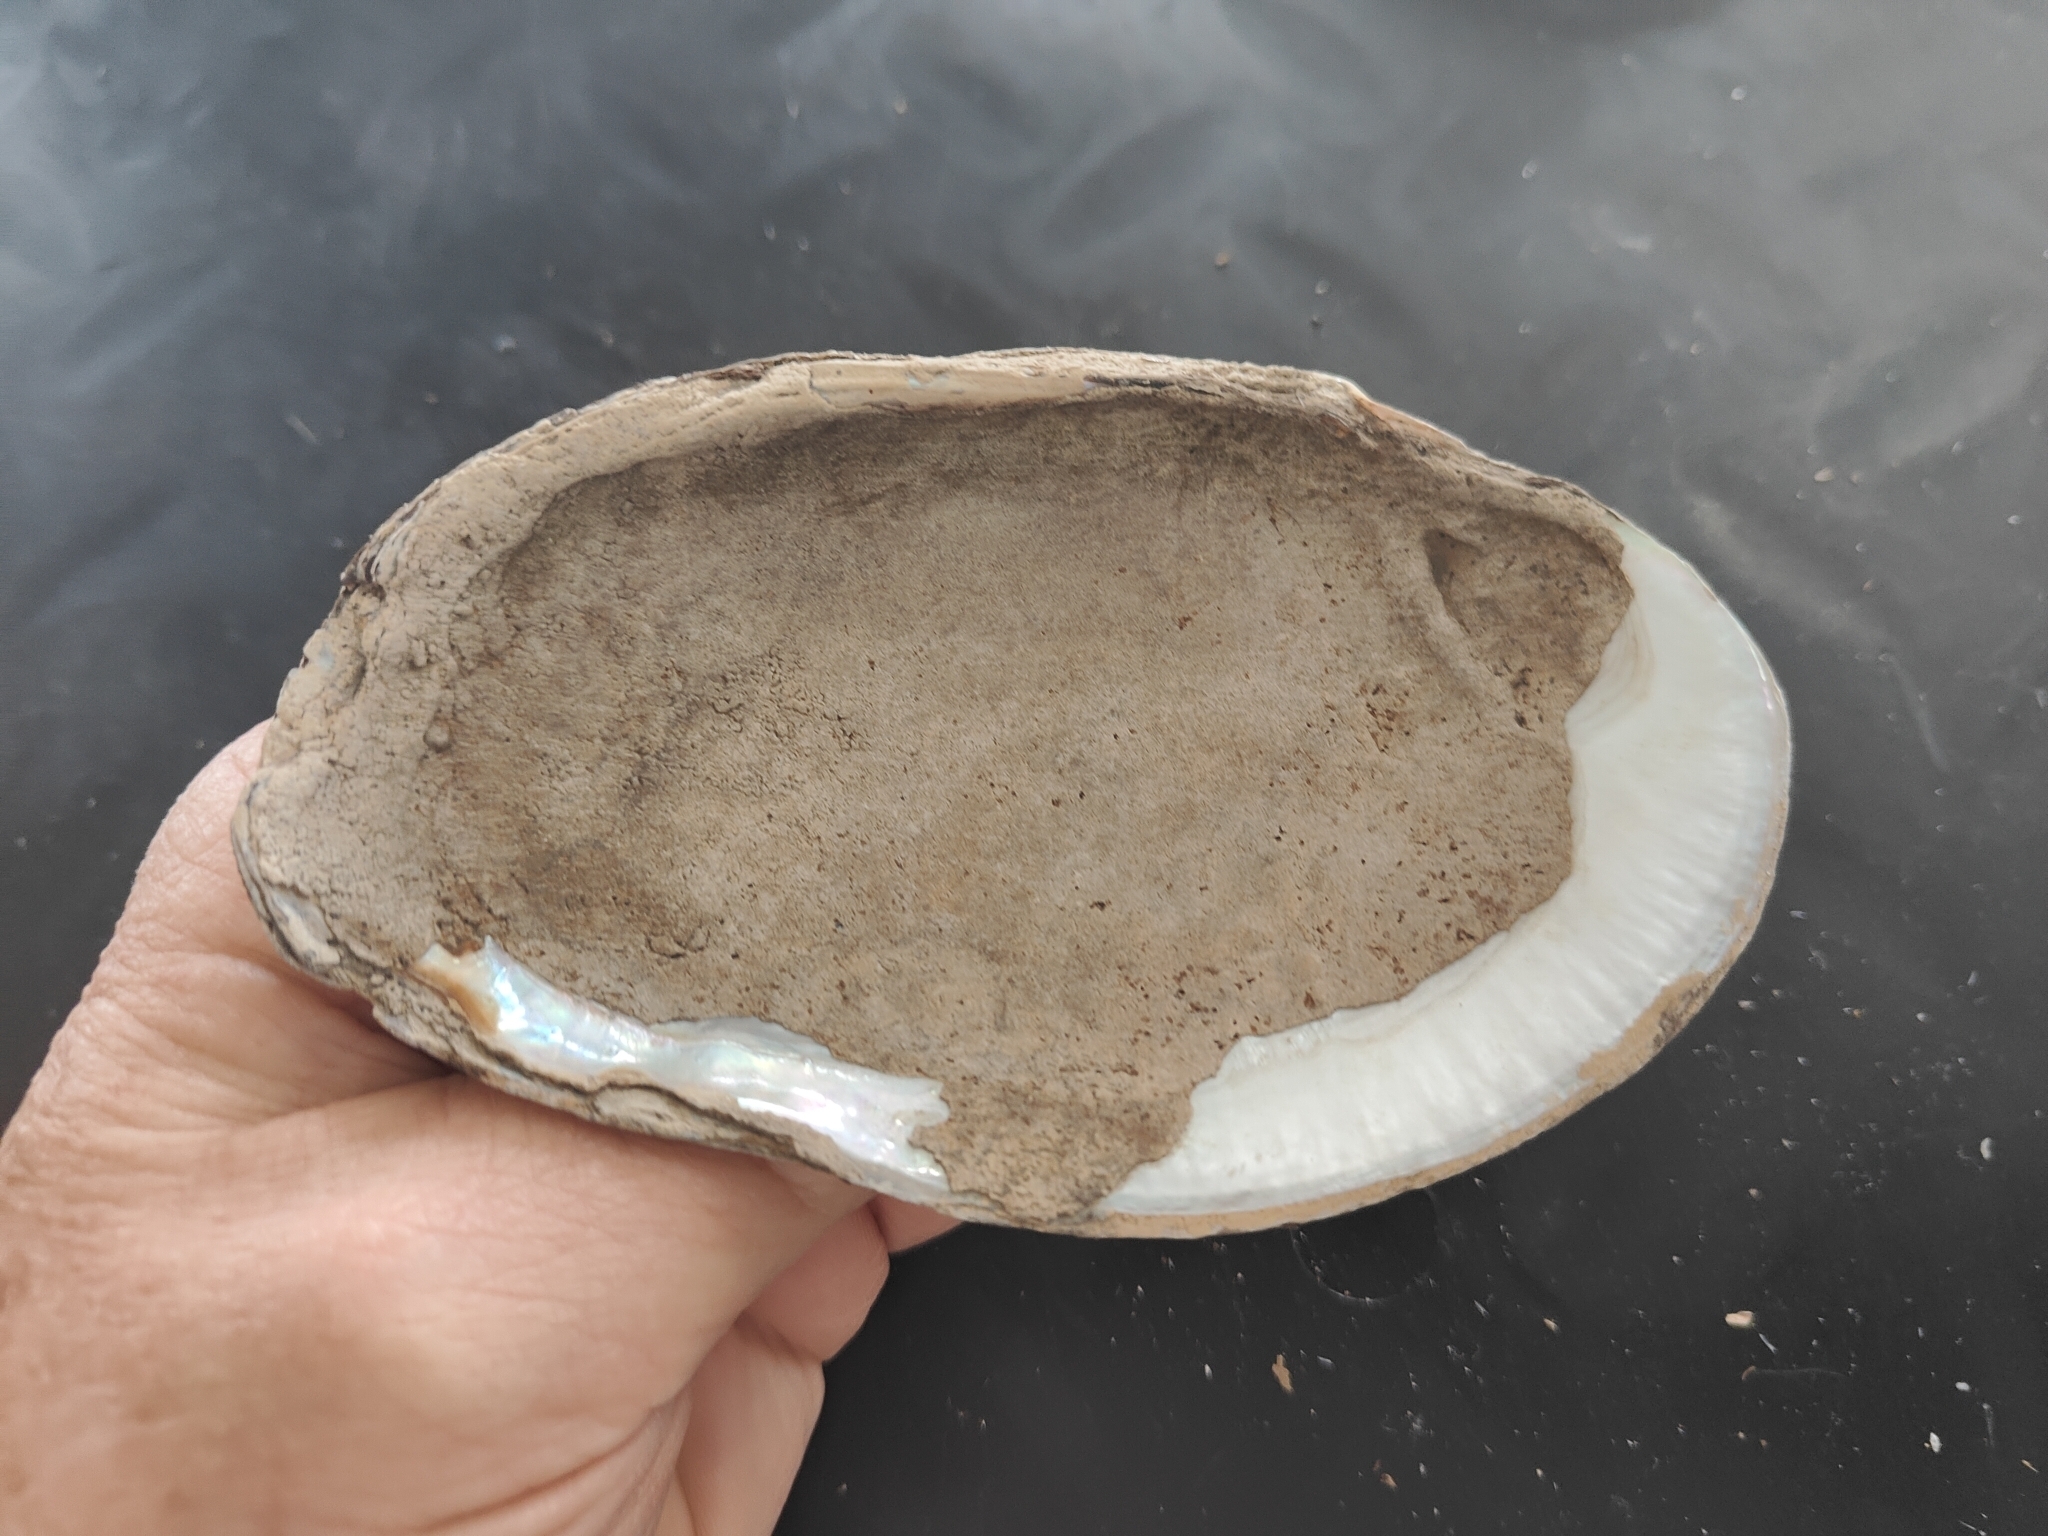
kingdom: Animalia
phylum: Mollusca
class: Bivalvia
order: Unionida
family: Unionidae
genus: Potamilus
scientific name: Potamilus fragilis
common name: Fragile papershell
